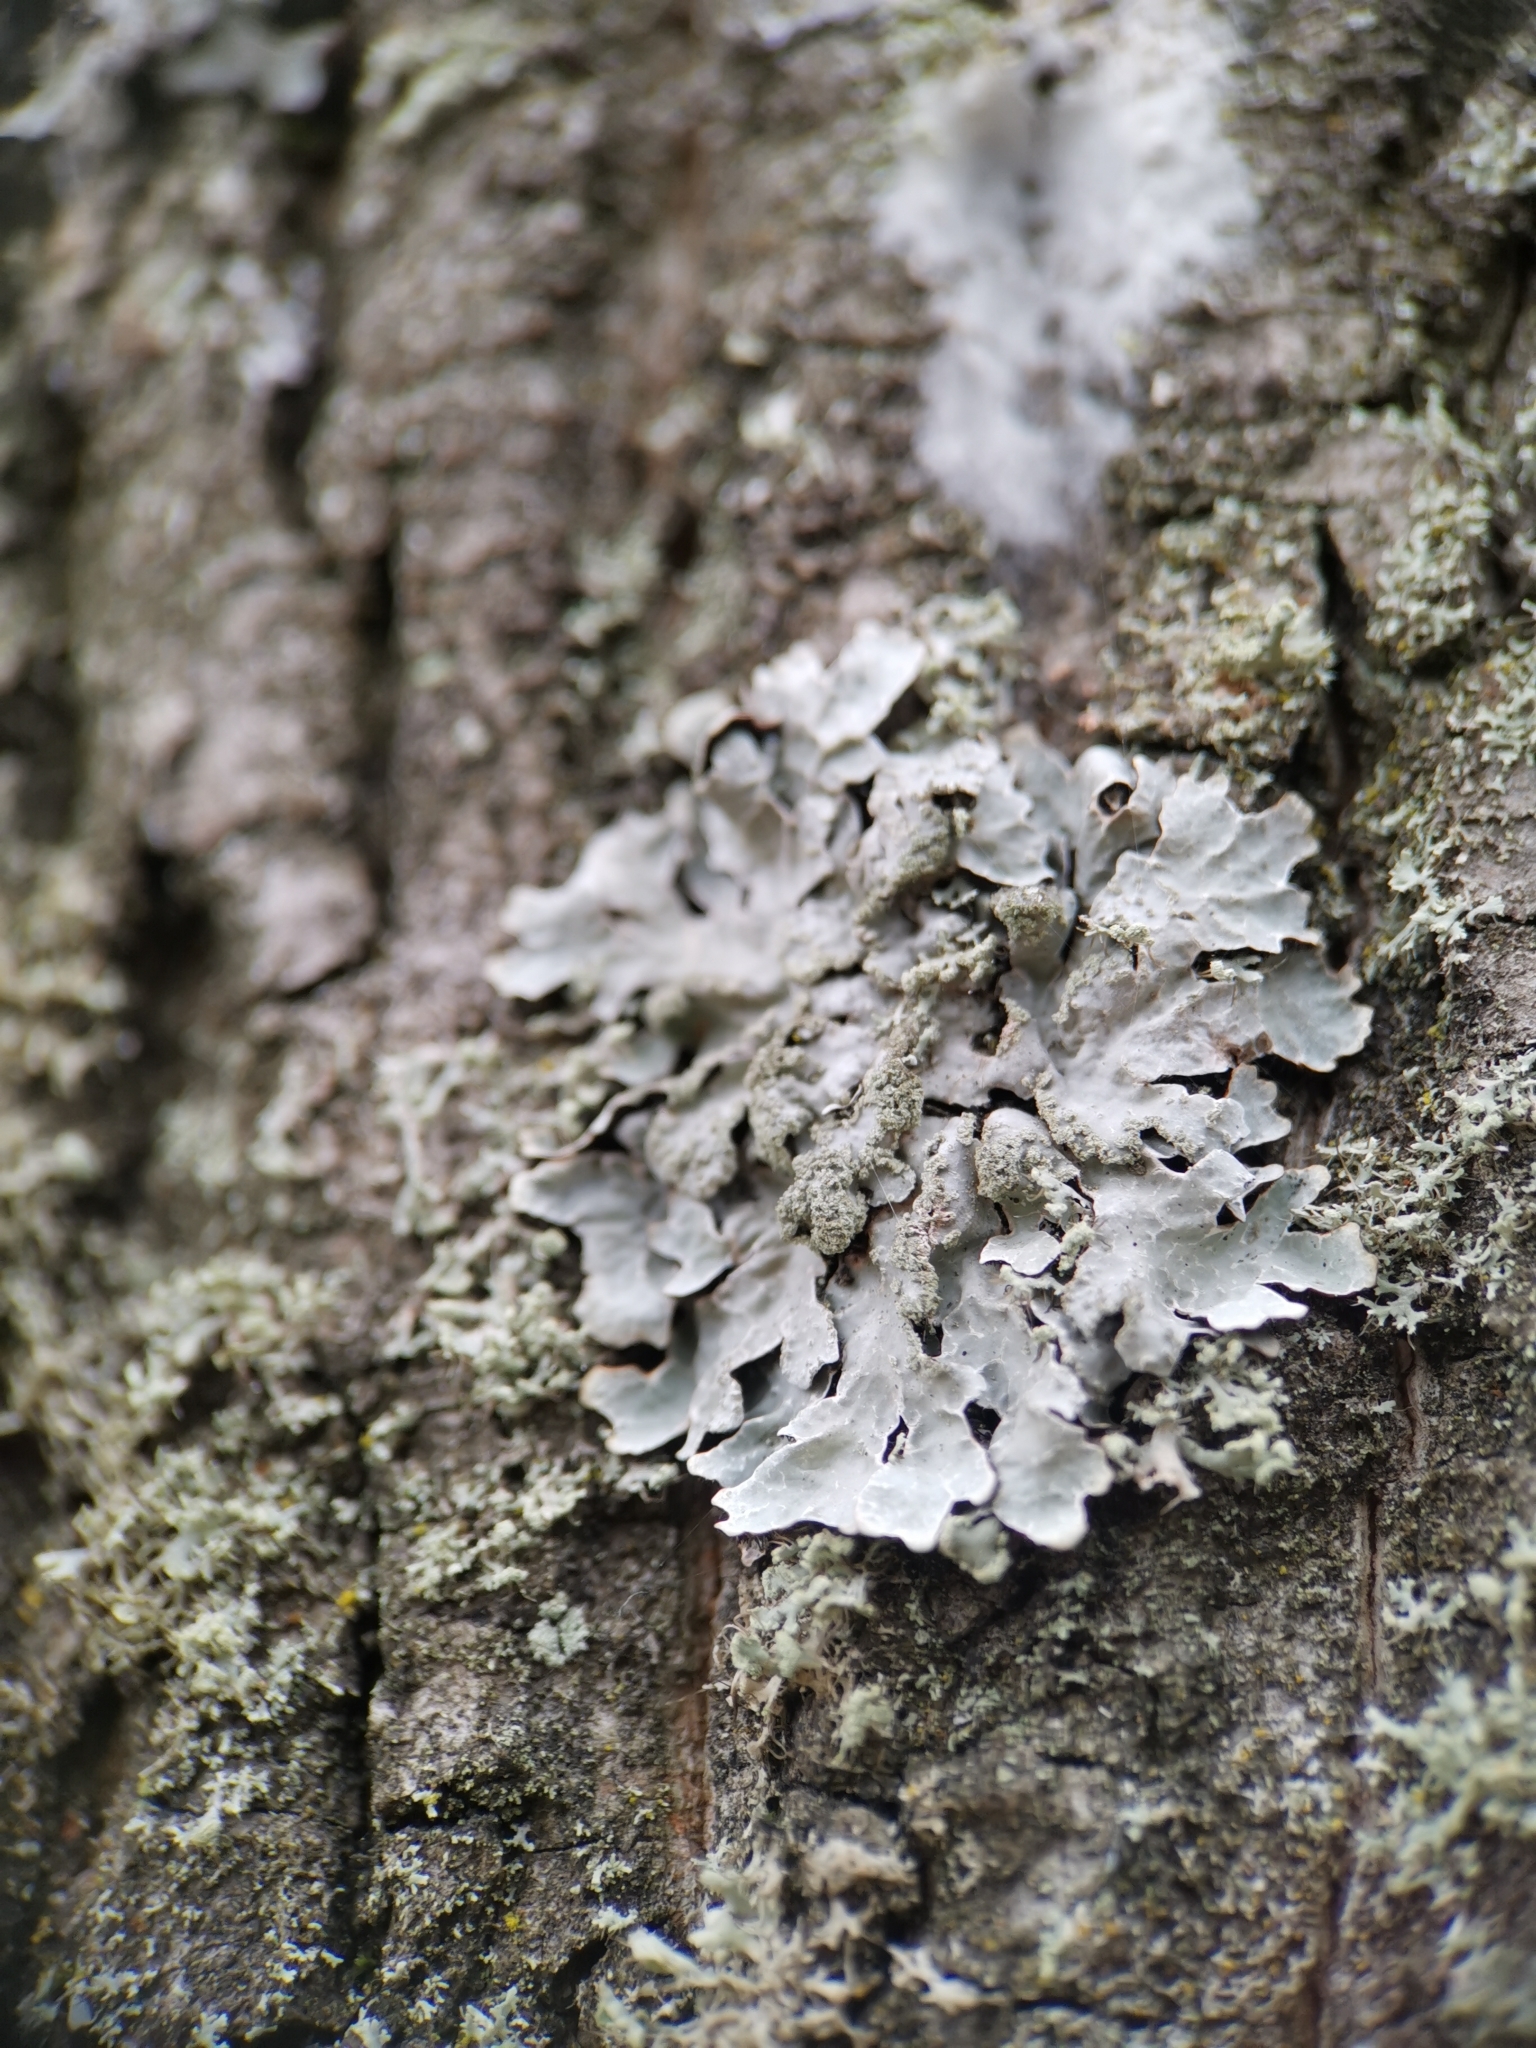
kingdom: Fungi
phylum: Ascomycota
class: Lecanoromycetes
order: Lecanorales
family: Parmeliaceae
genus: Parmelia
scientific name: Parmelia sulcata
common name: Netted shield lichen
